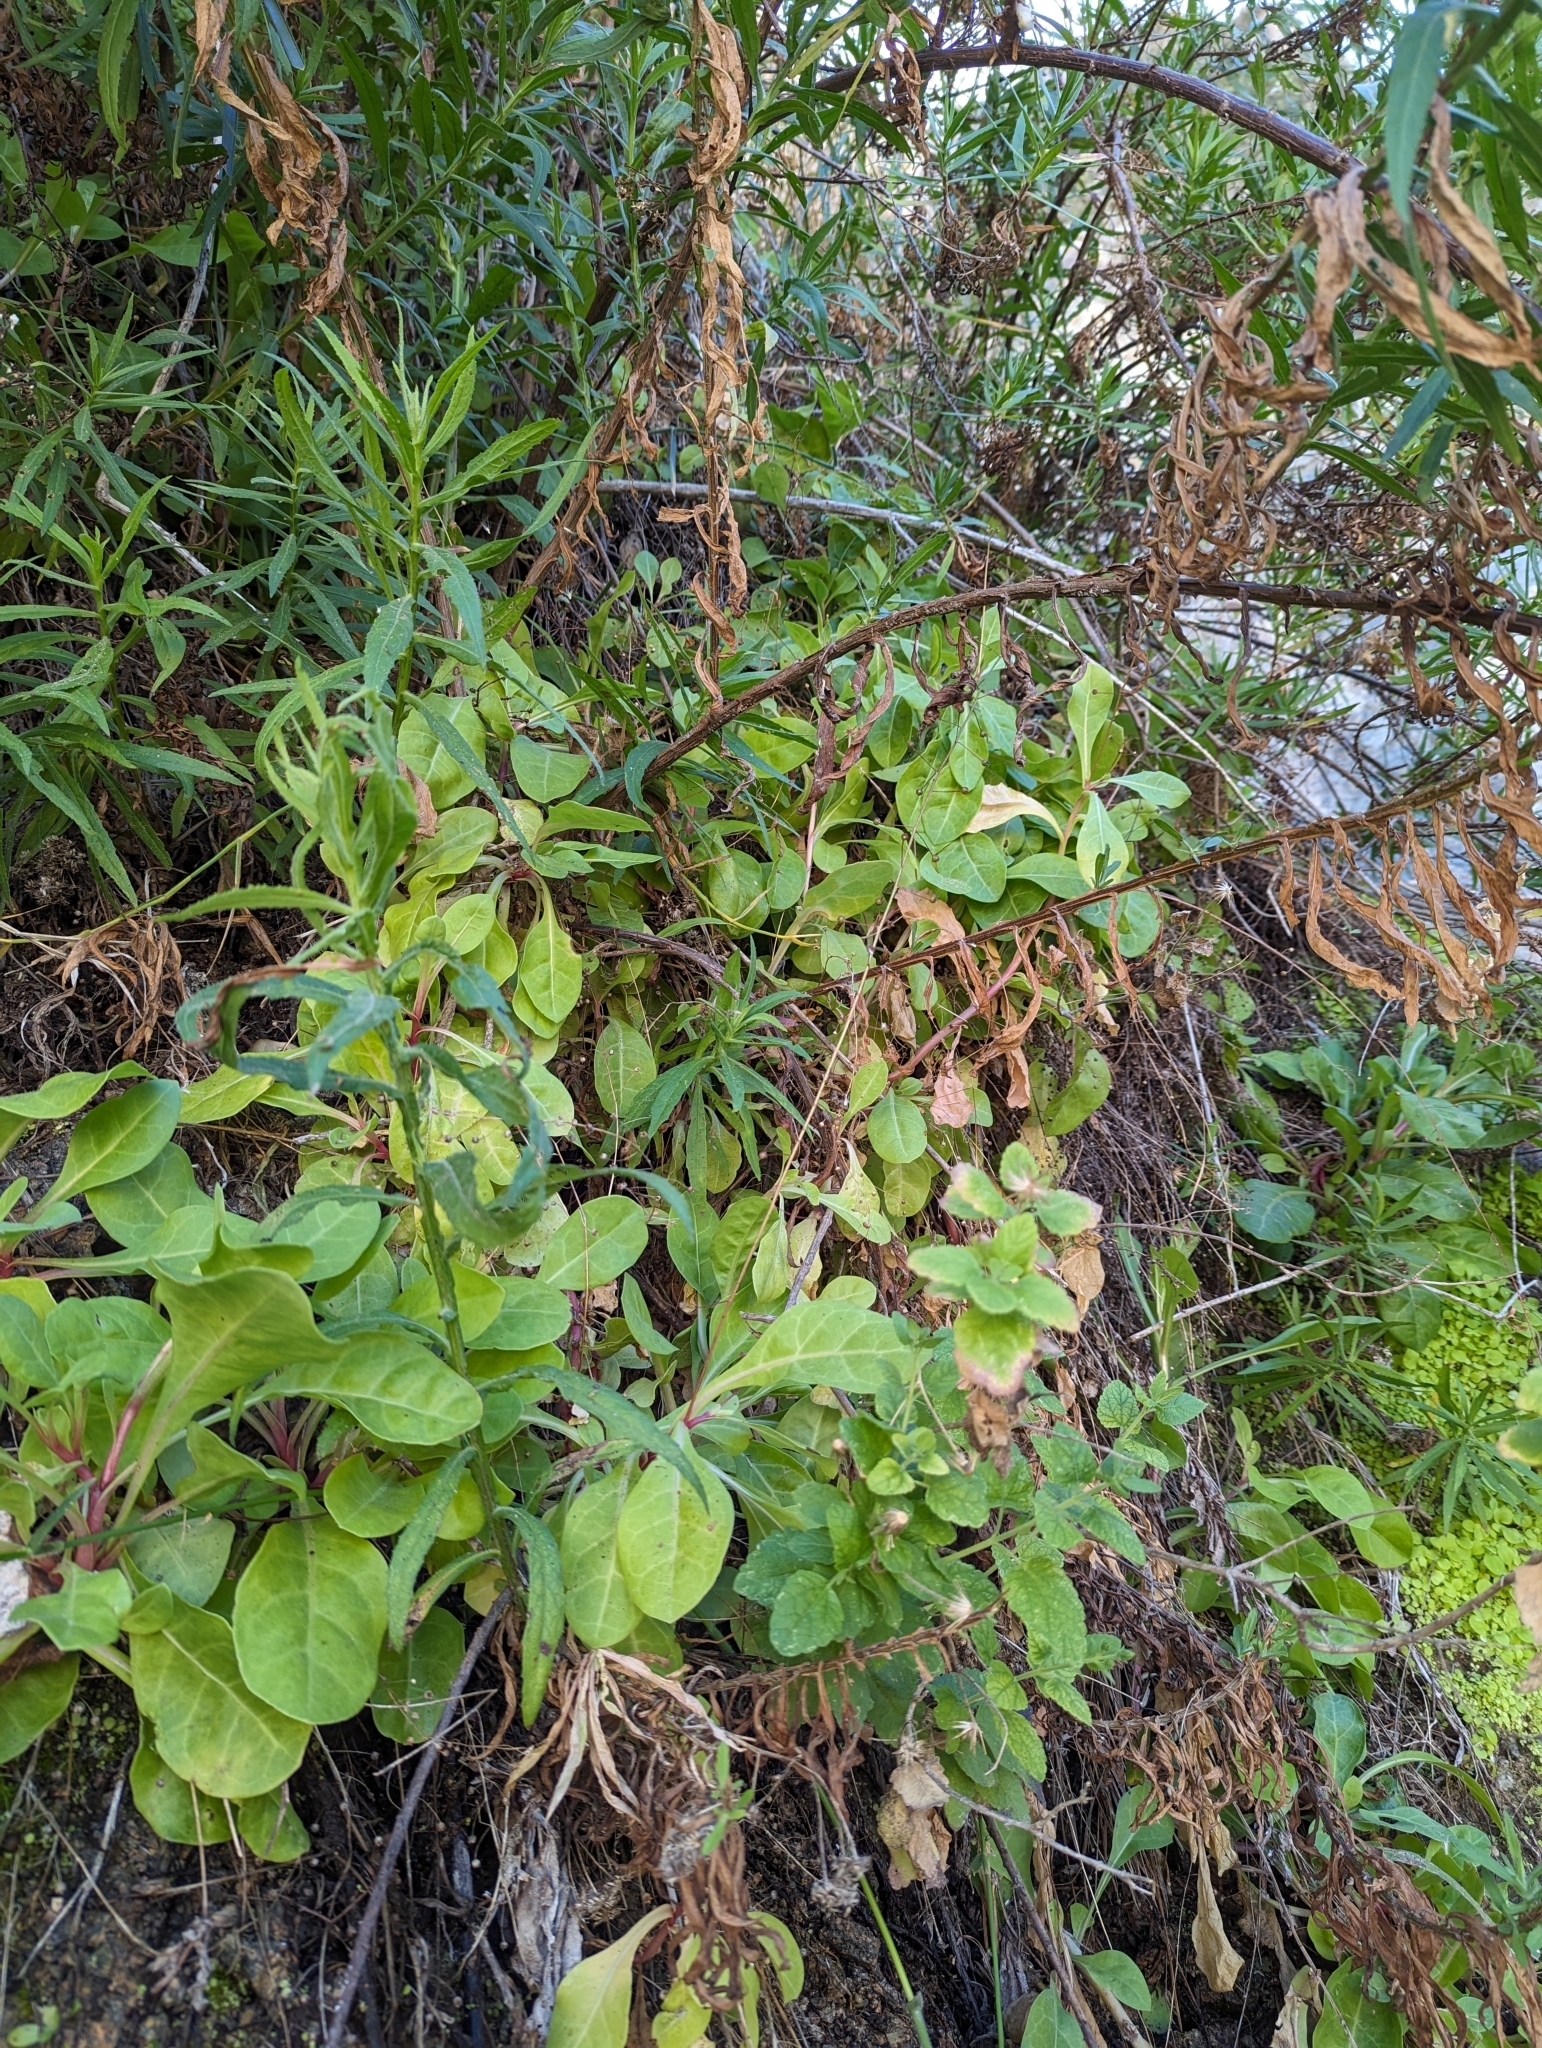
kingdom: Plantae
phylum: Tracheophyta
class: Magnoliopsida
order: Ericales
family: Primulaceae
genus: Samolus
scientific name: Samolus ebracteatus
